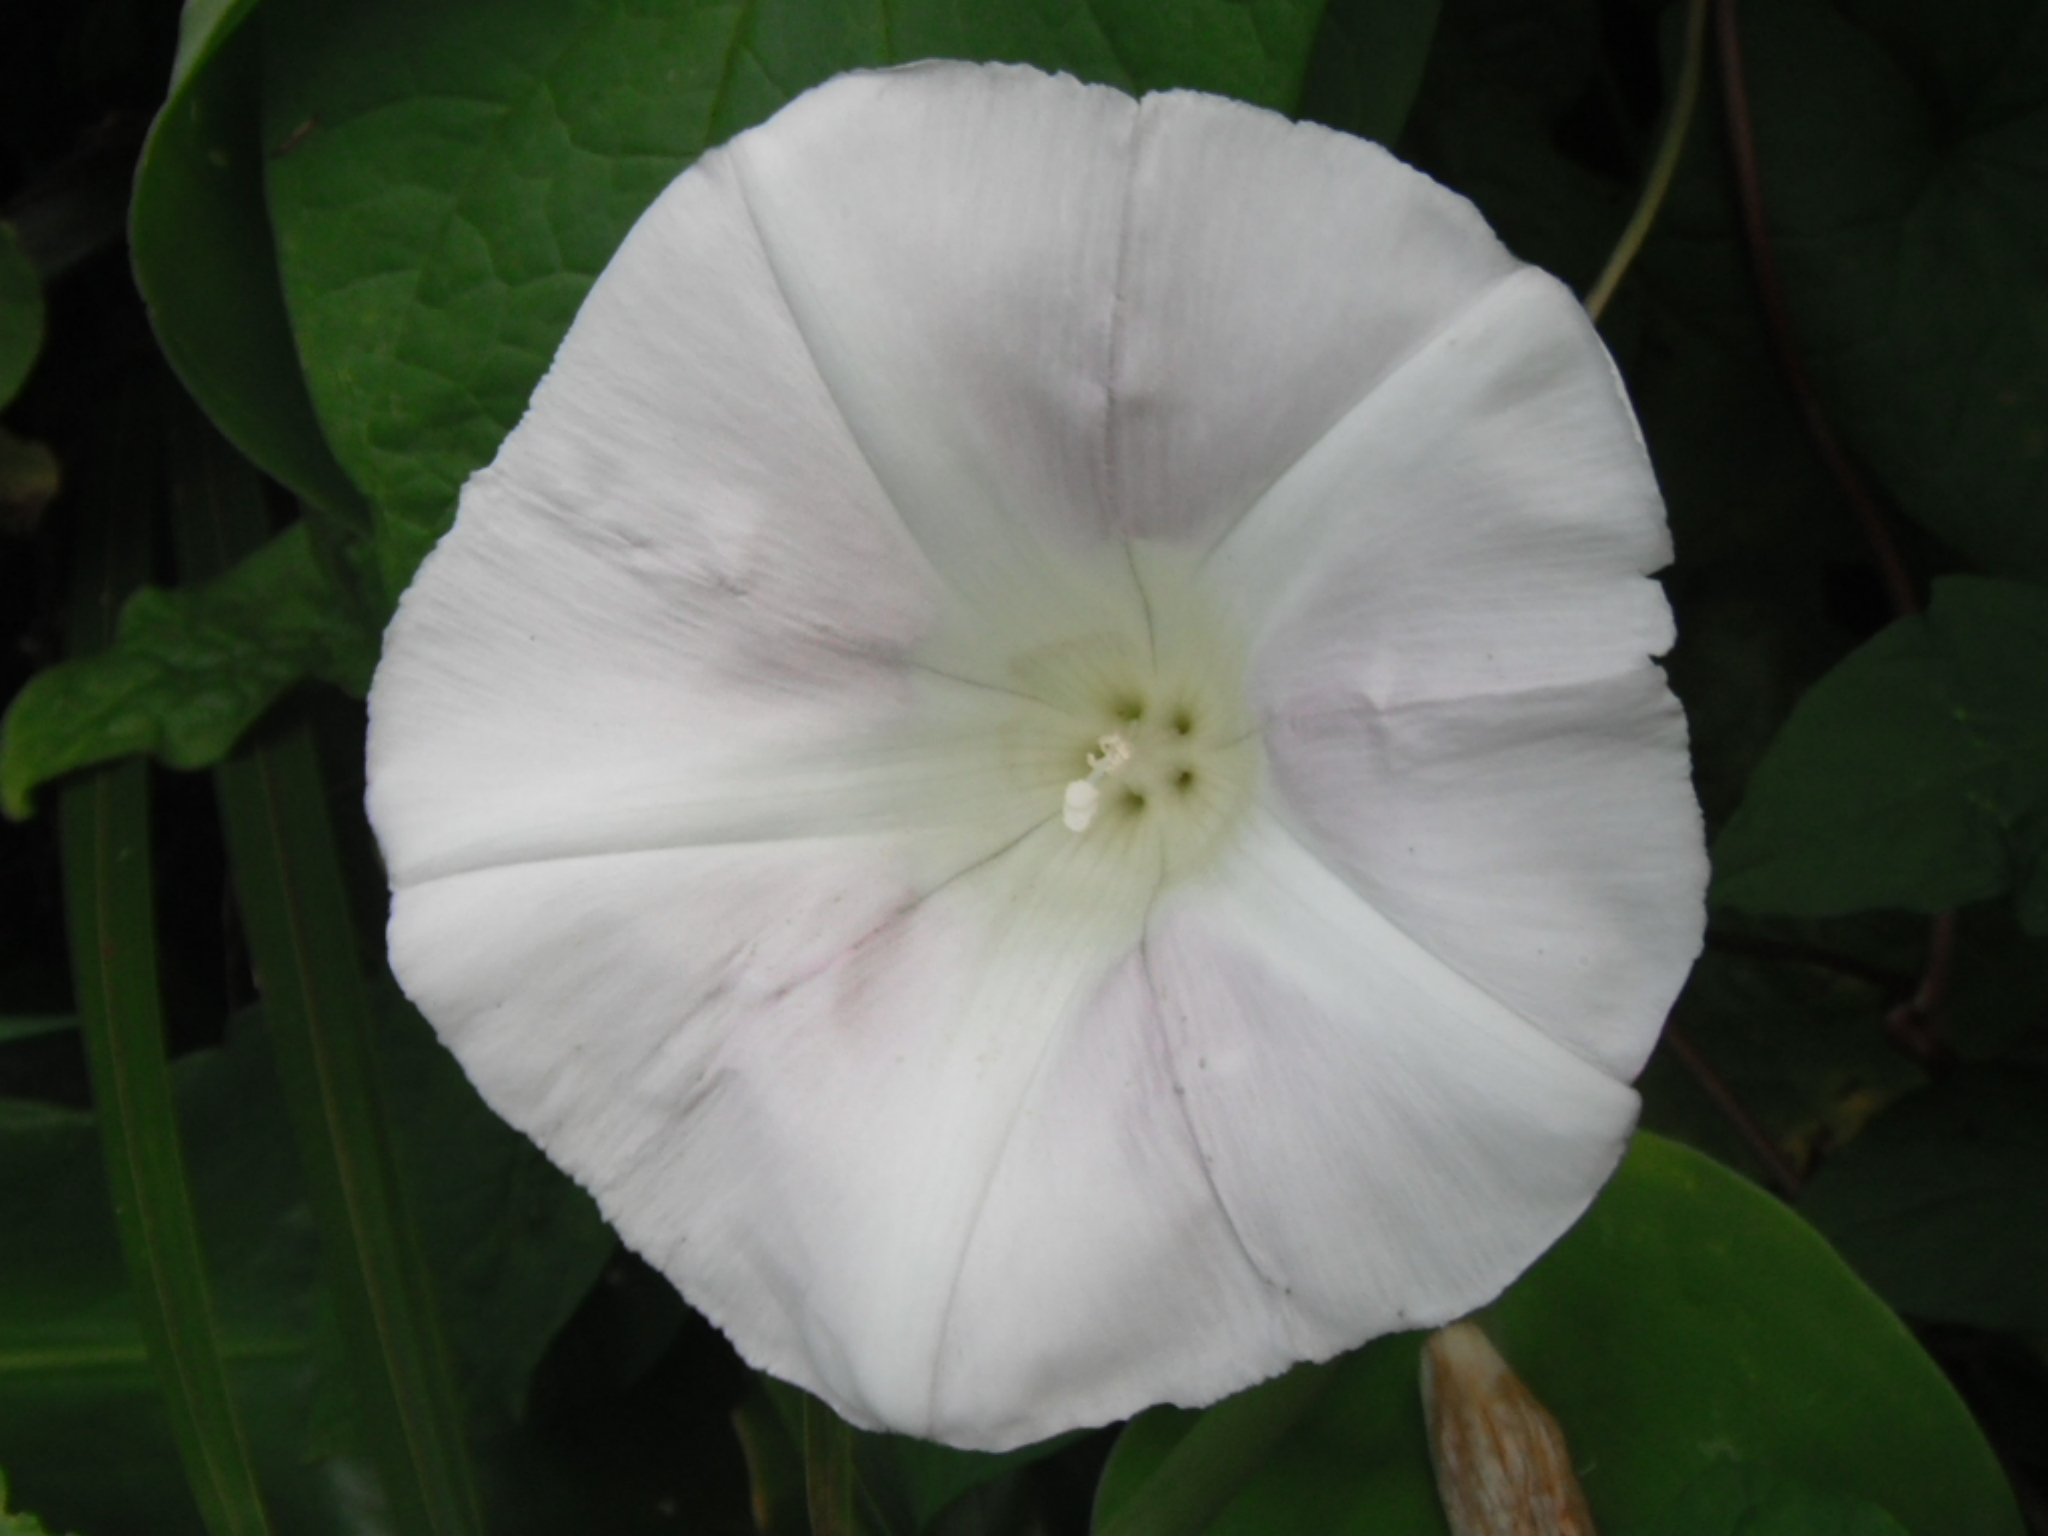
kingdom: Plantae
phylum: Tracheophyta
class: Magnoliopsida
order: Solanales
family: Convolvulaceae
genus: Calystegia
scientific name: Calystegia silvatica
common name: Large bindweed
